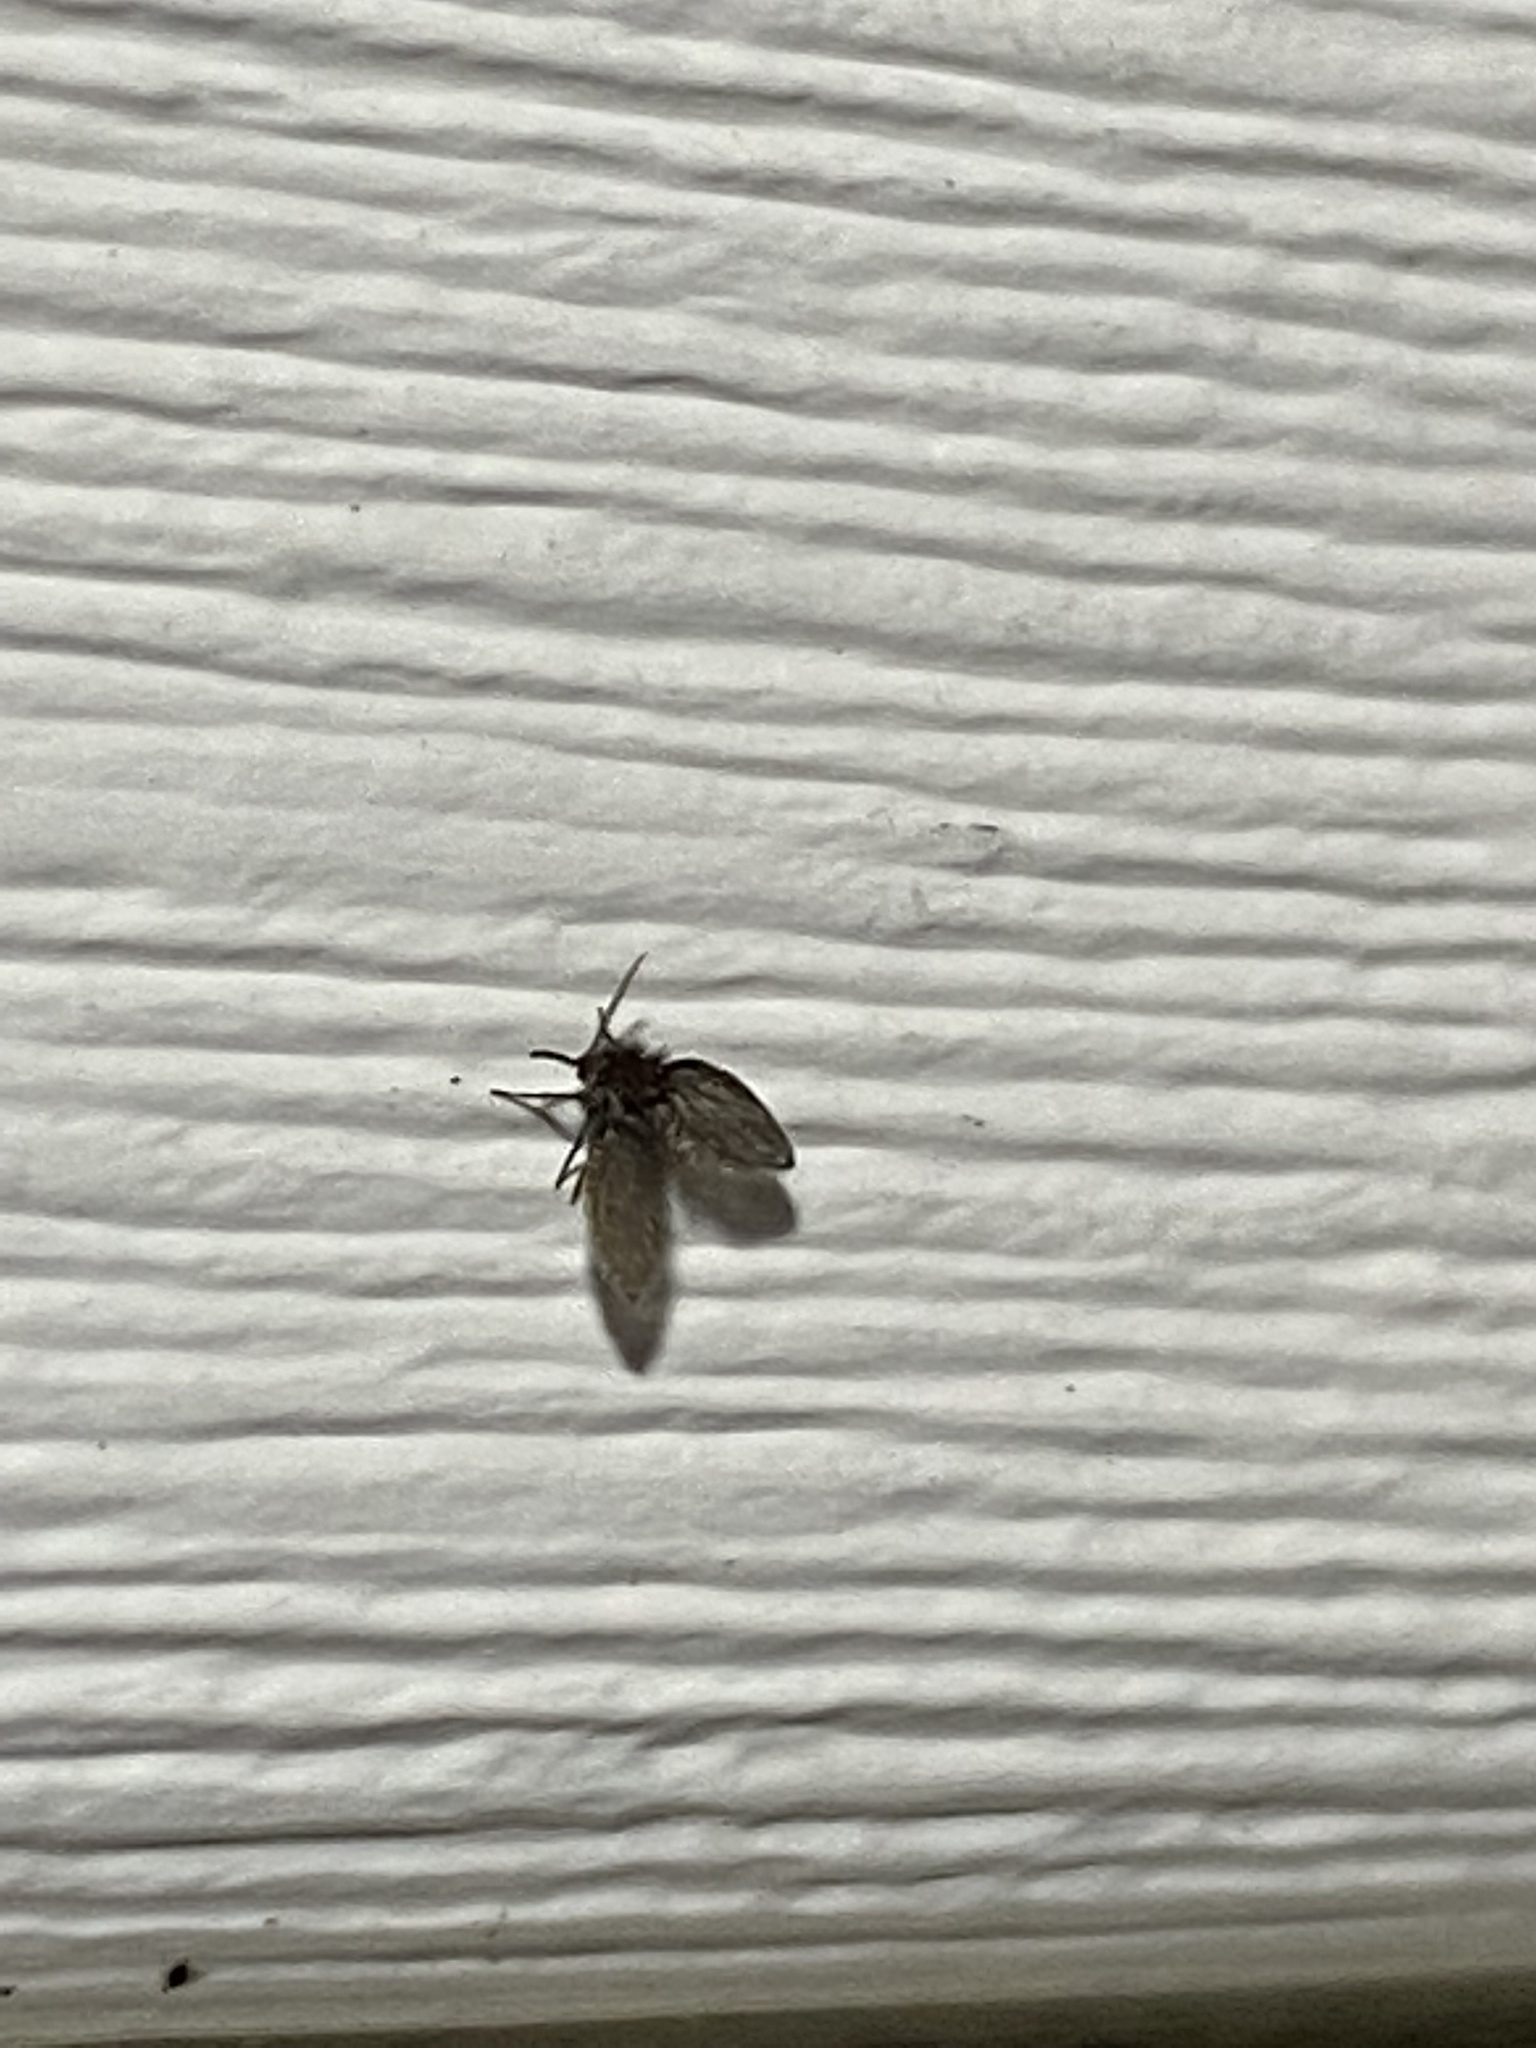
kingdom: Animalia
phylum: Arthropoda
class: Insecta
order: Diptera
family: Psychodidae
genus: Clogmia
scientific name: Clogmia albipunctatus
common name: White-spotted moth fly
